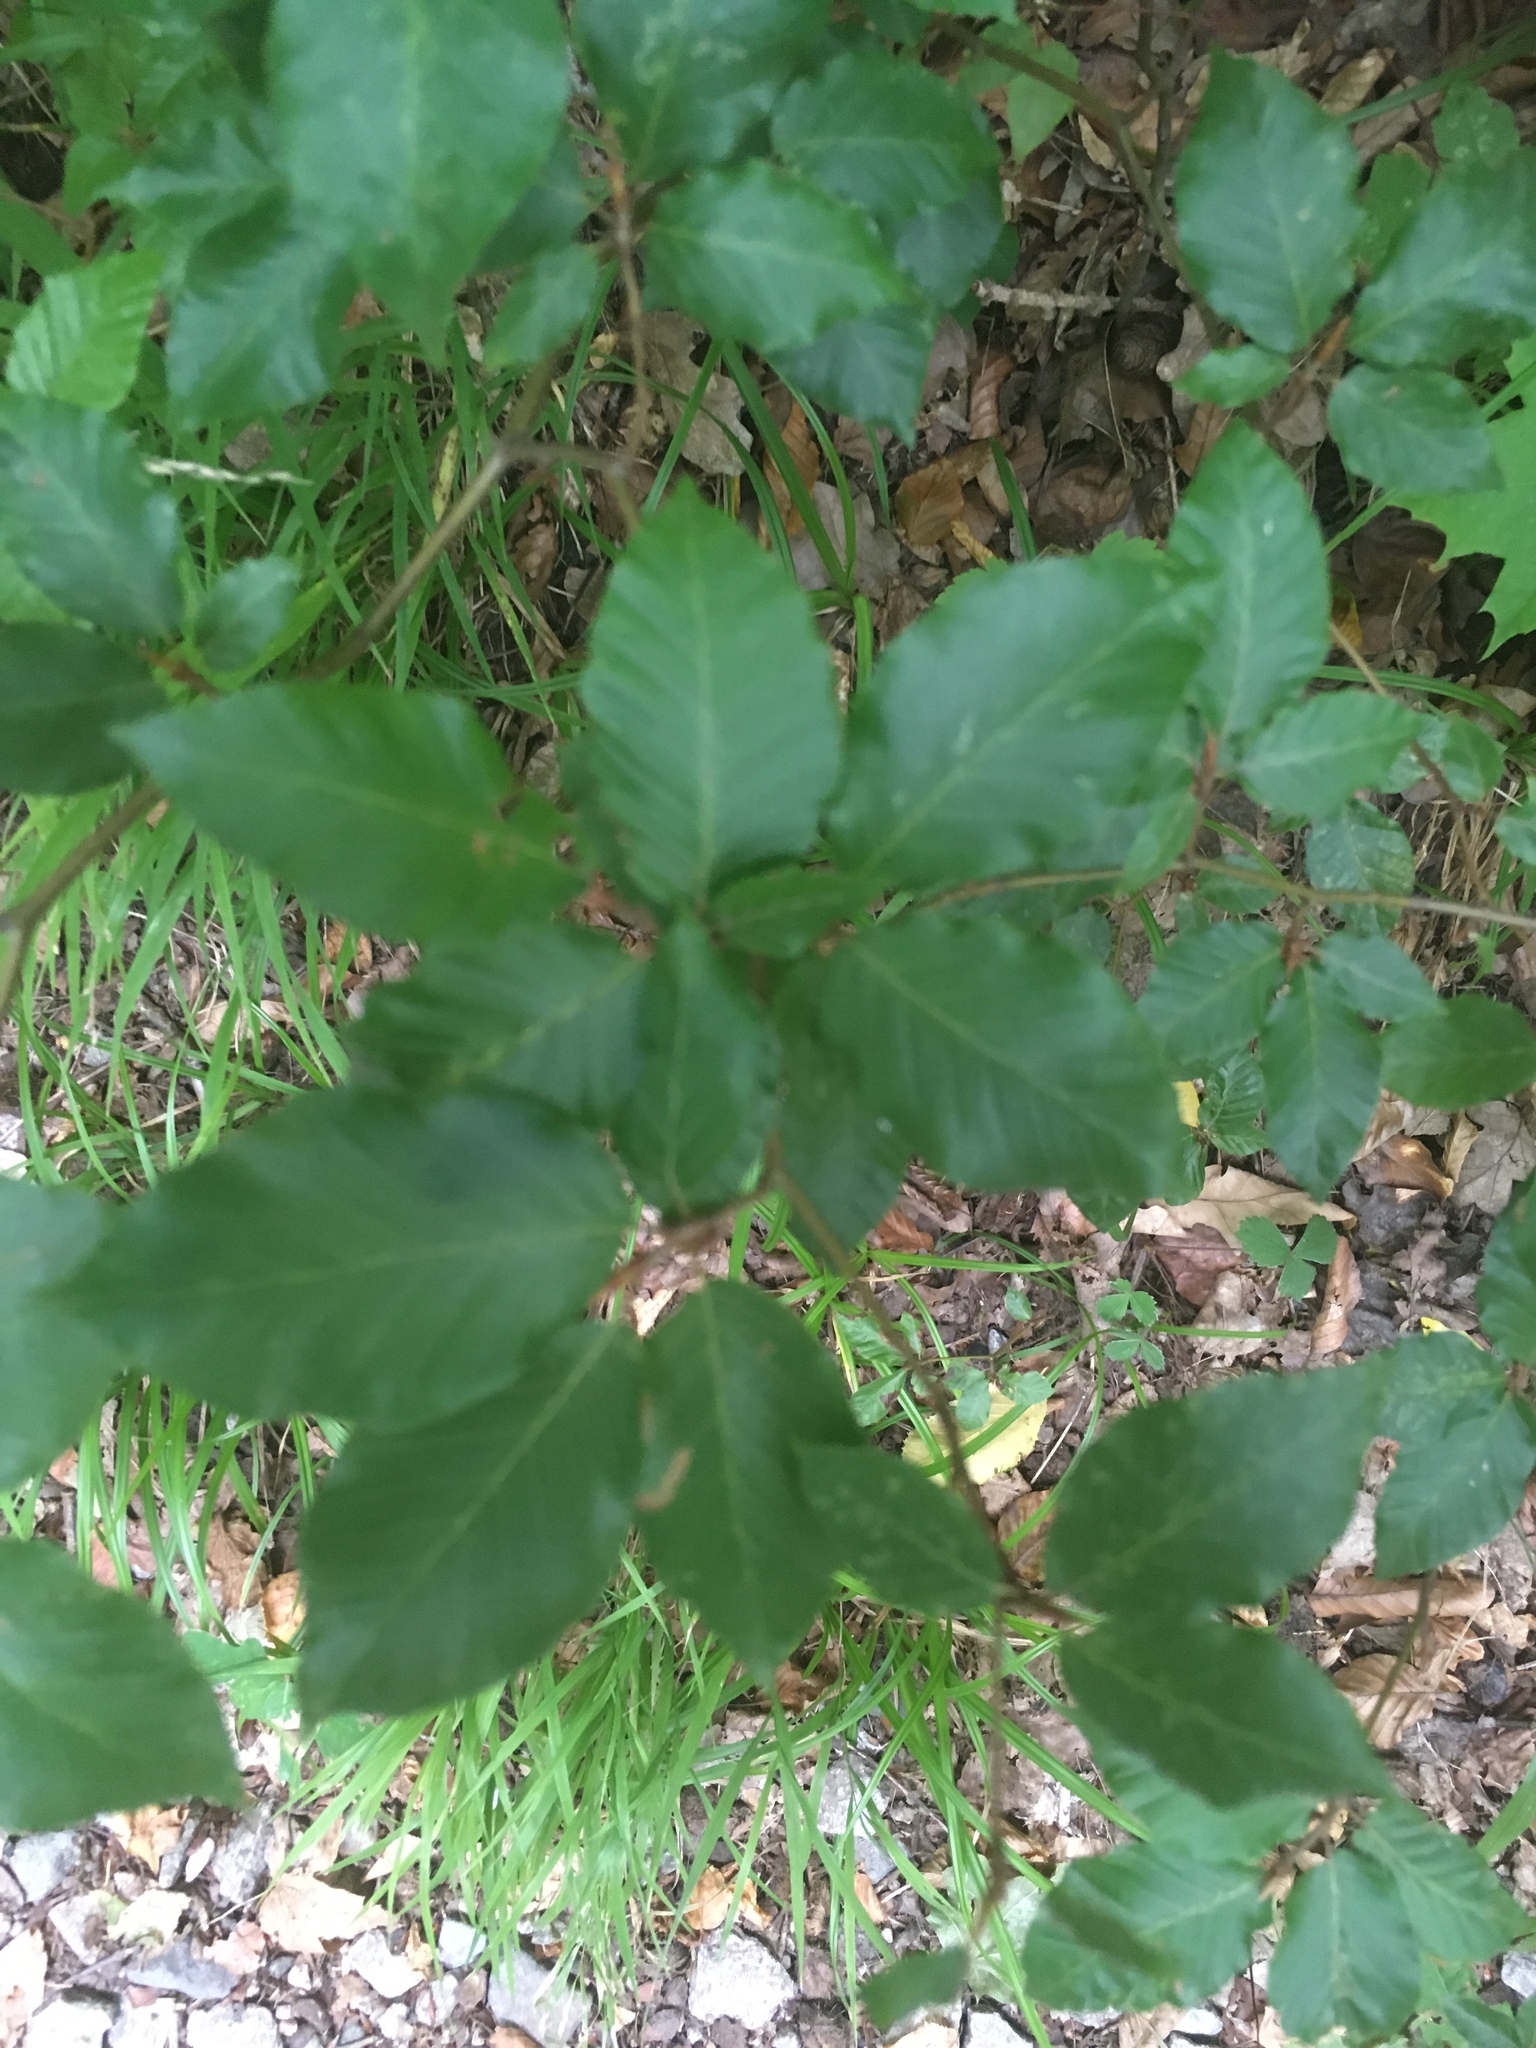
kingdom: Plantae
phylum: Tracheophyta
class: Magnoliopsida
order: Fagales
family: Fagaceae
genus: Fagus
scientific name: Fagus sylvatica
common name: Beech
